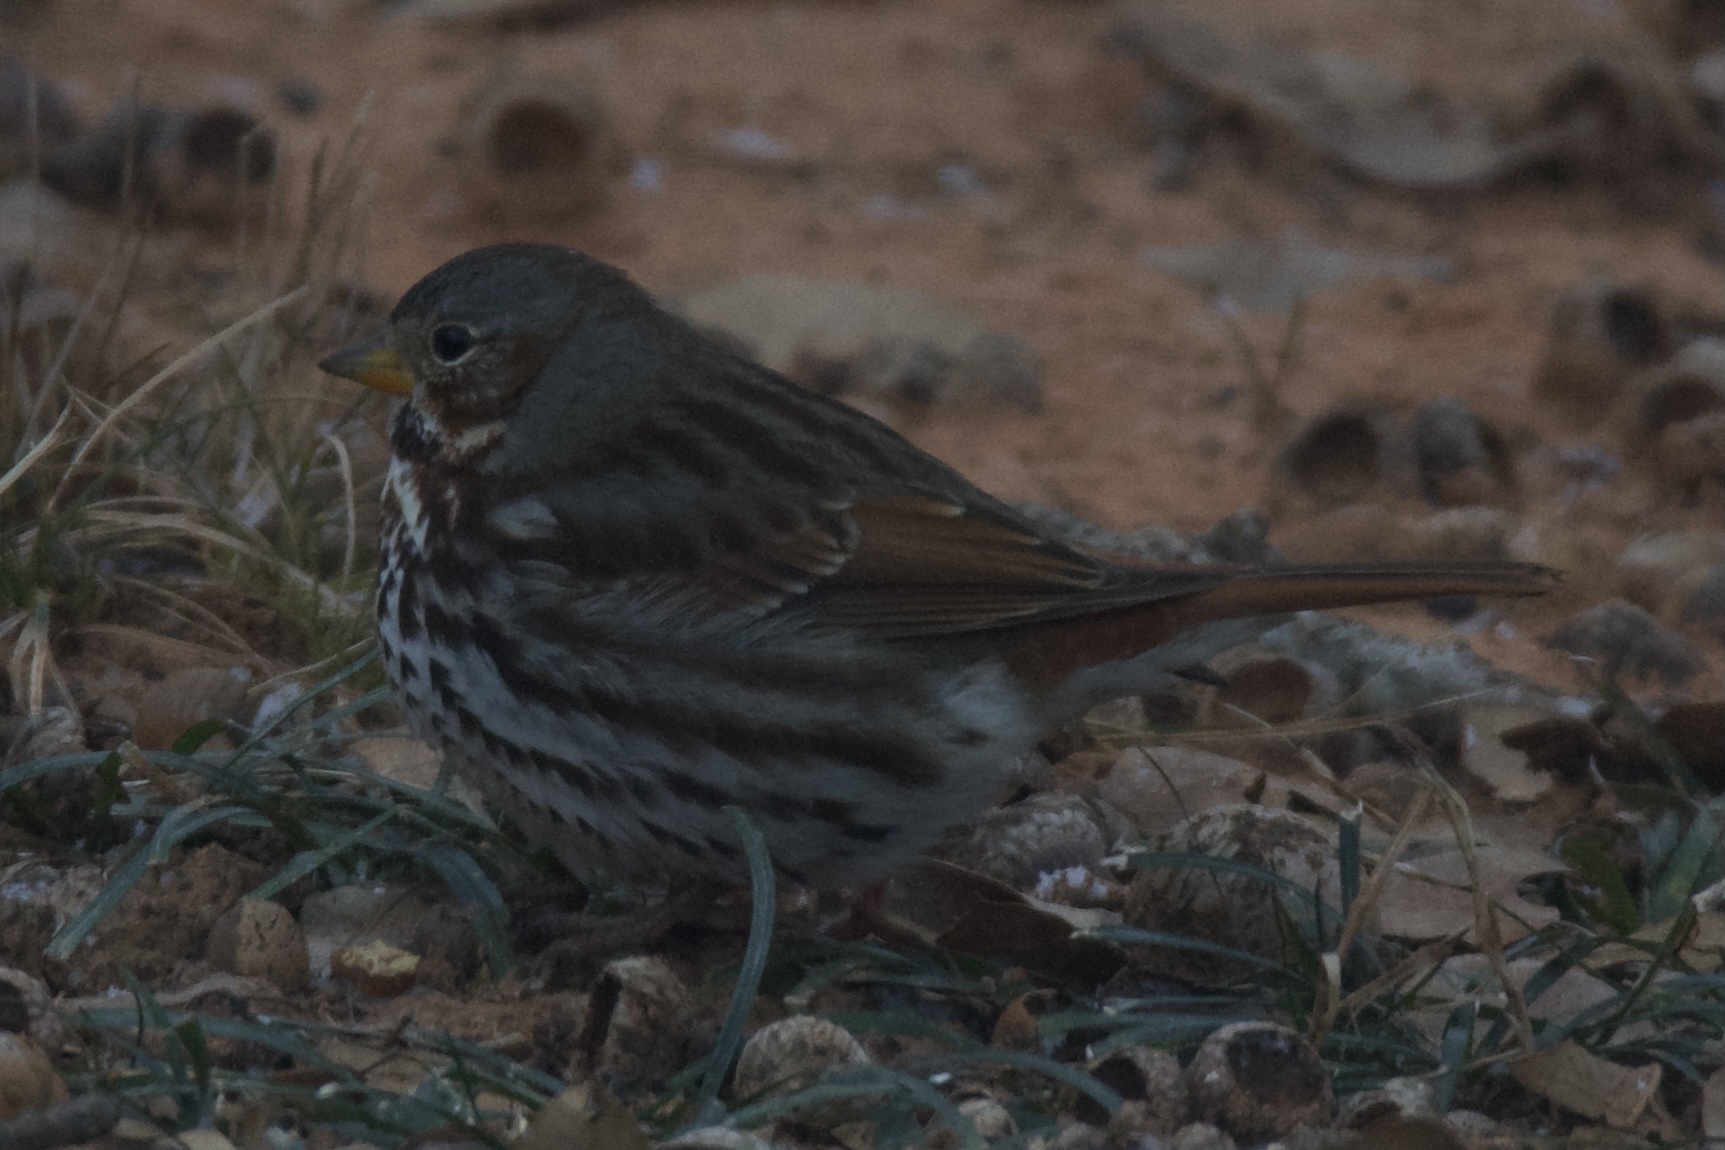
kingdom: Animalia
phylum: Chordata
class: Aves
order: Passeriformes
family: Passerellidae
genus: Passerella
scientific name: Passerella iliaca
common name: Fox sparrow
